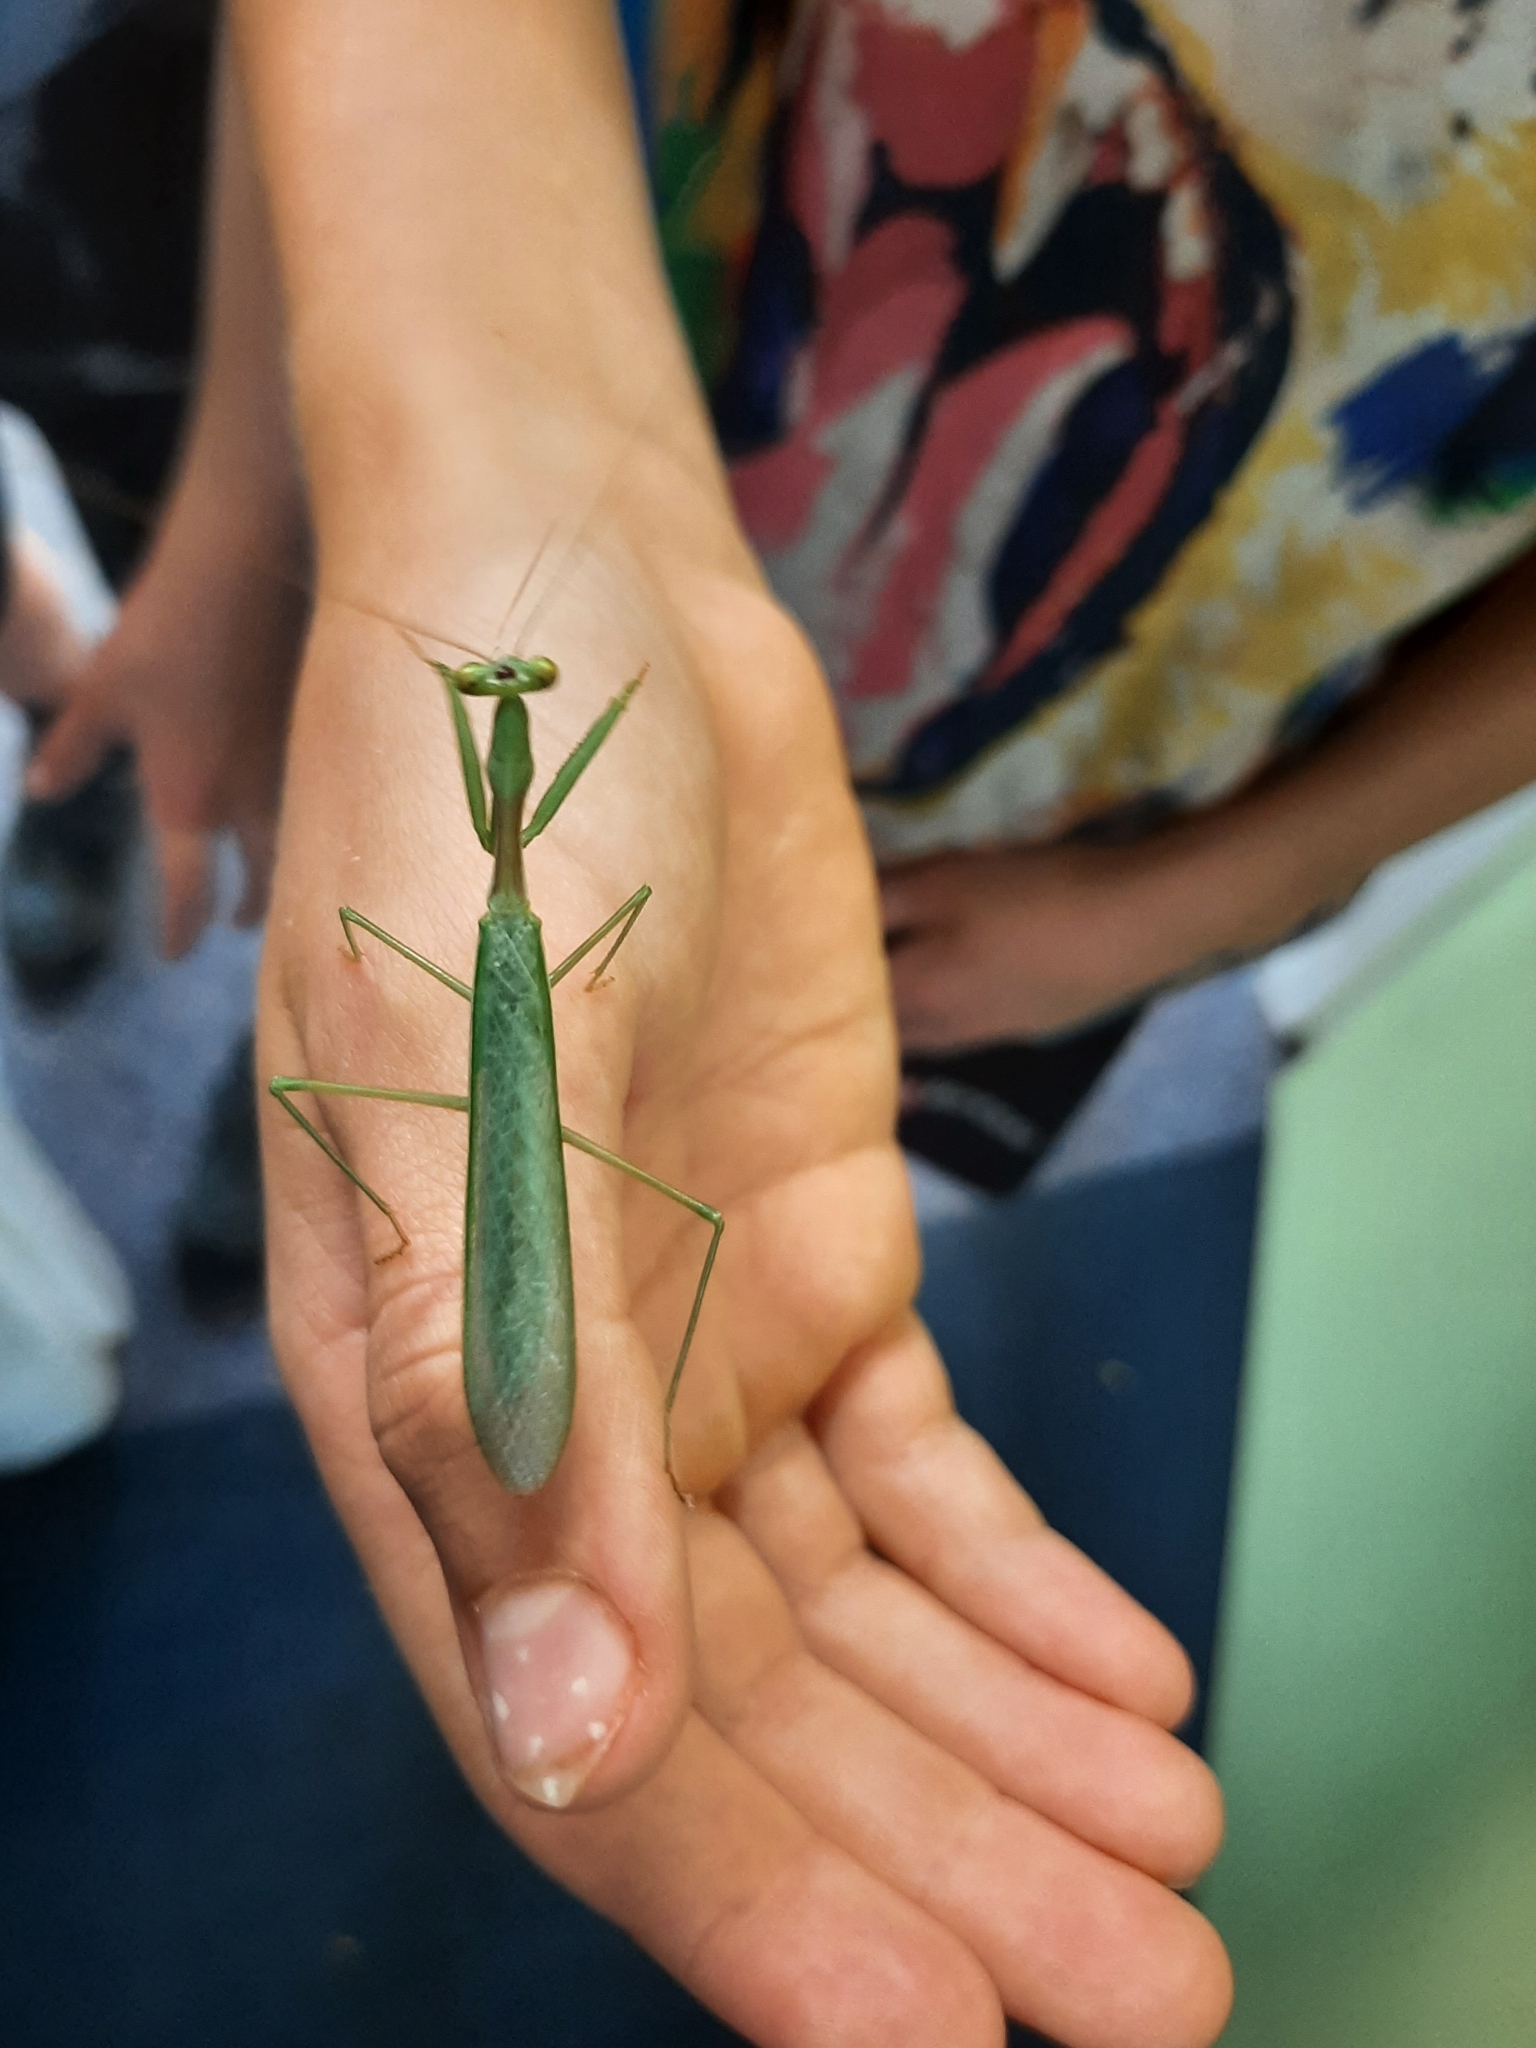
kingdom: Animalia
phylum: Arthropoda
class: Insecta
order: Mantodea
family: Miomantidae
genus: Miomantis
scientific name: Miomantis caffra
